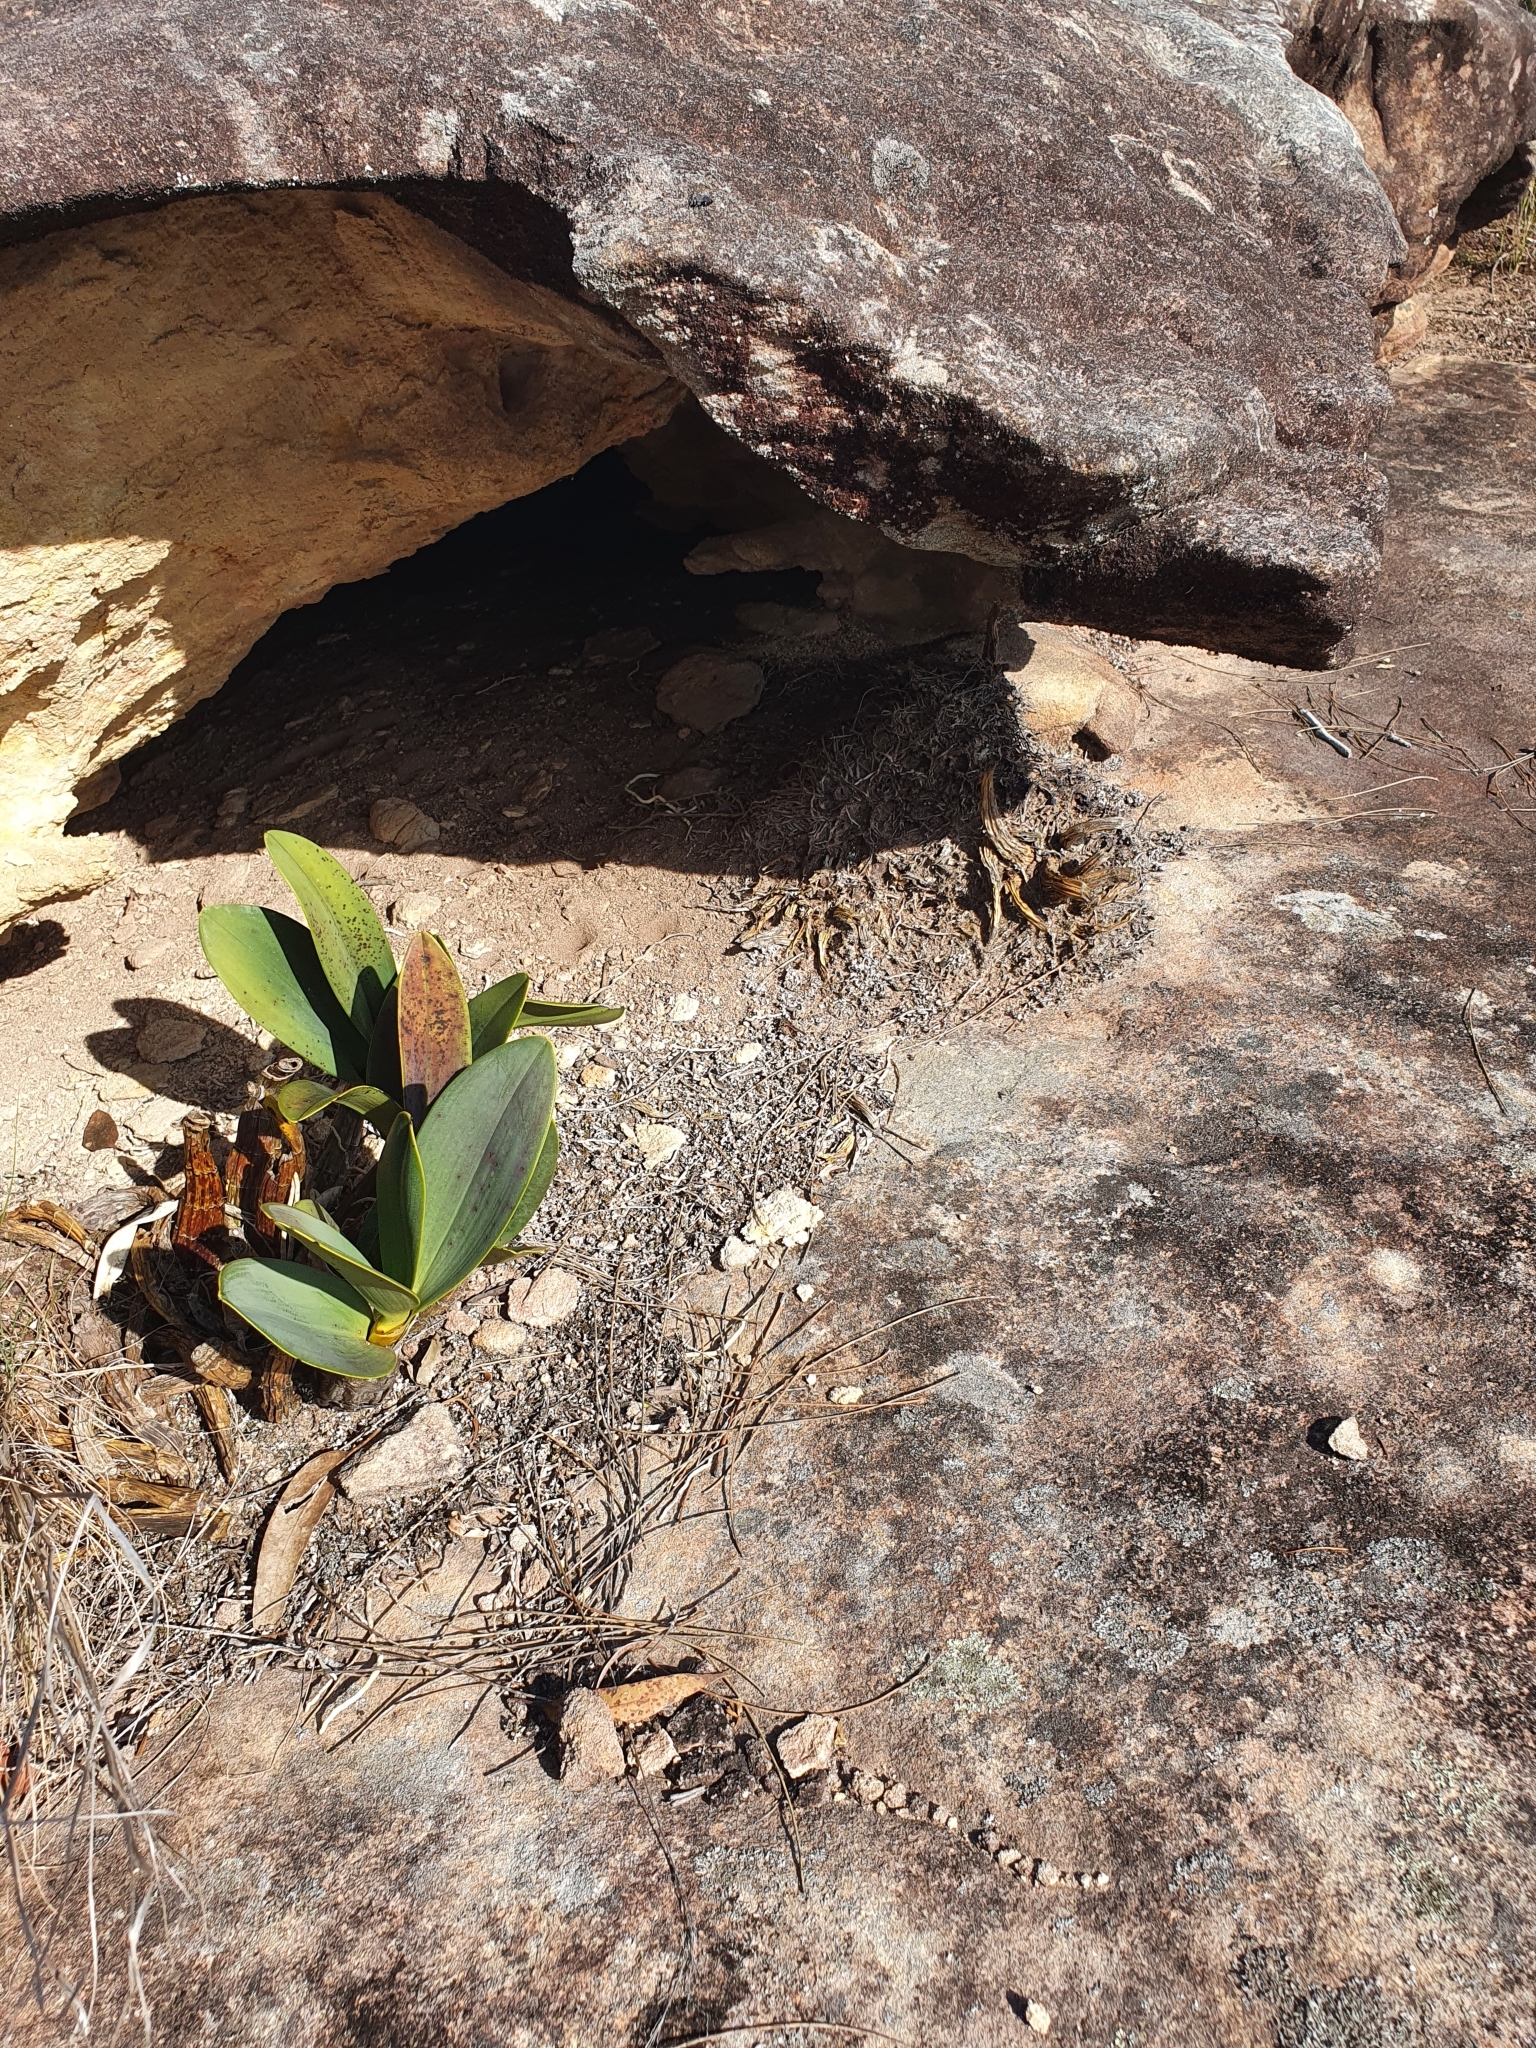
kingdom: Plantae
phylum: Tracheophyta
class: Liliopsida
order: Asparagales
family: Orchidaceae
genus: Dendrobium
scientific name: Dendrobium speciosum
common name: Rock-lily
